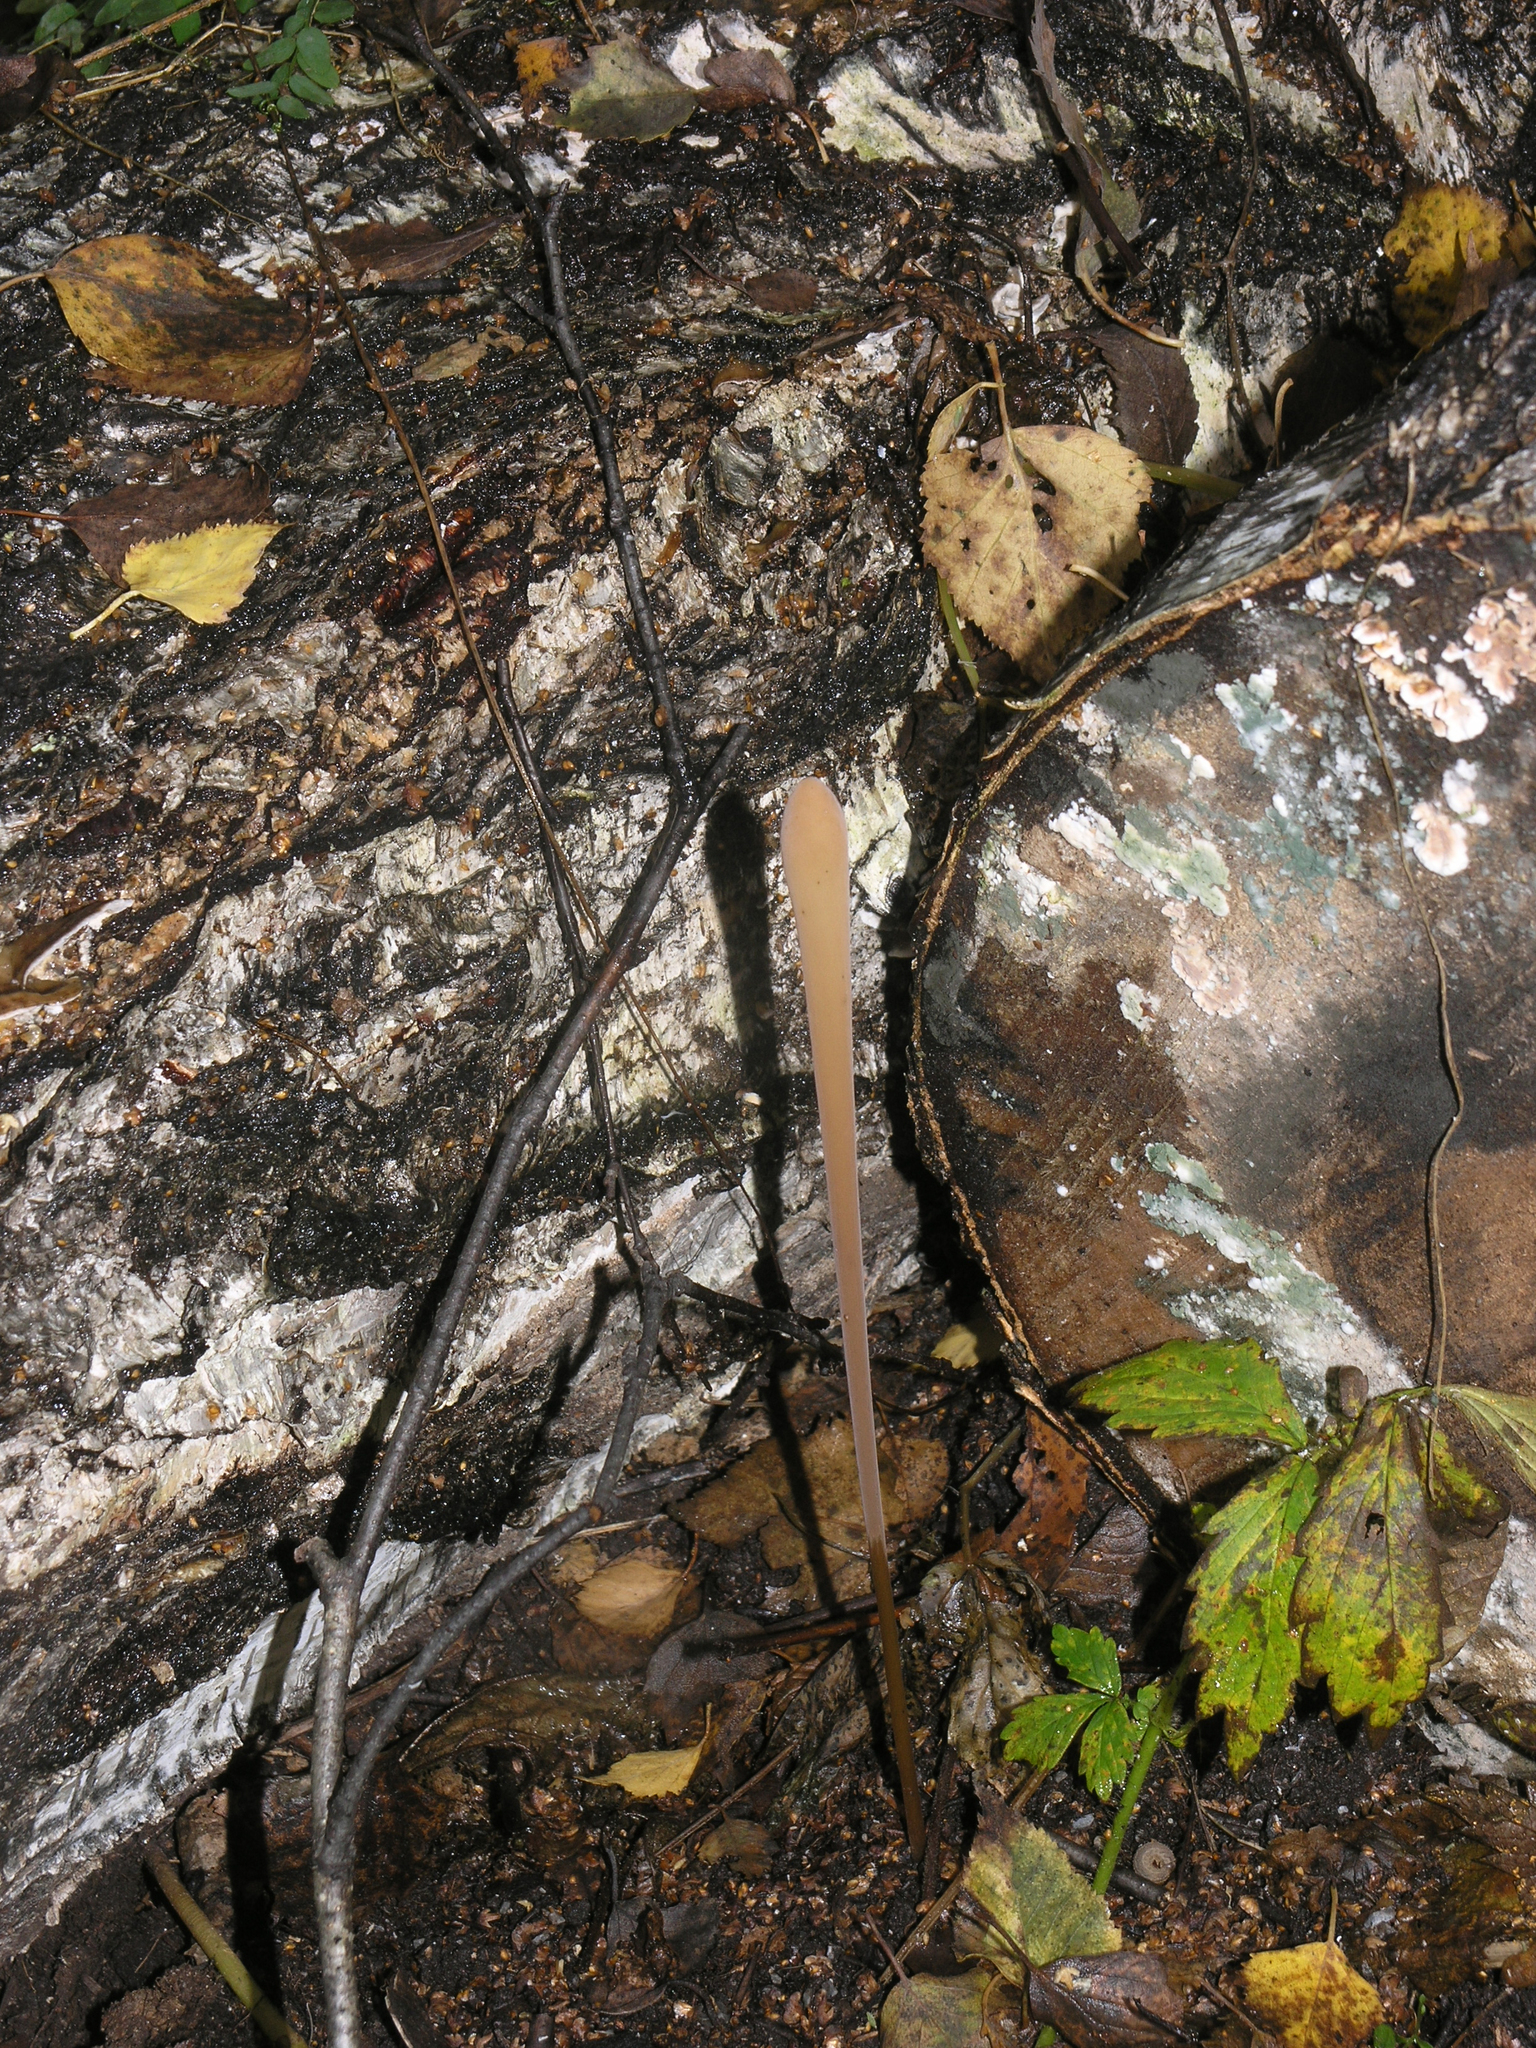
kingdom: Fungi
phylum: Basidiomycota
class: Agaricomycetes
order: Agaricales
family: Typhulaceae
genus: Typhula
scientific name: Typhula fistulosa
